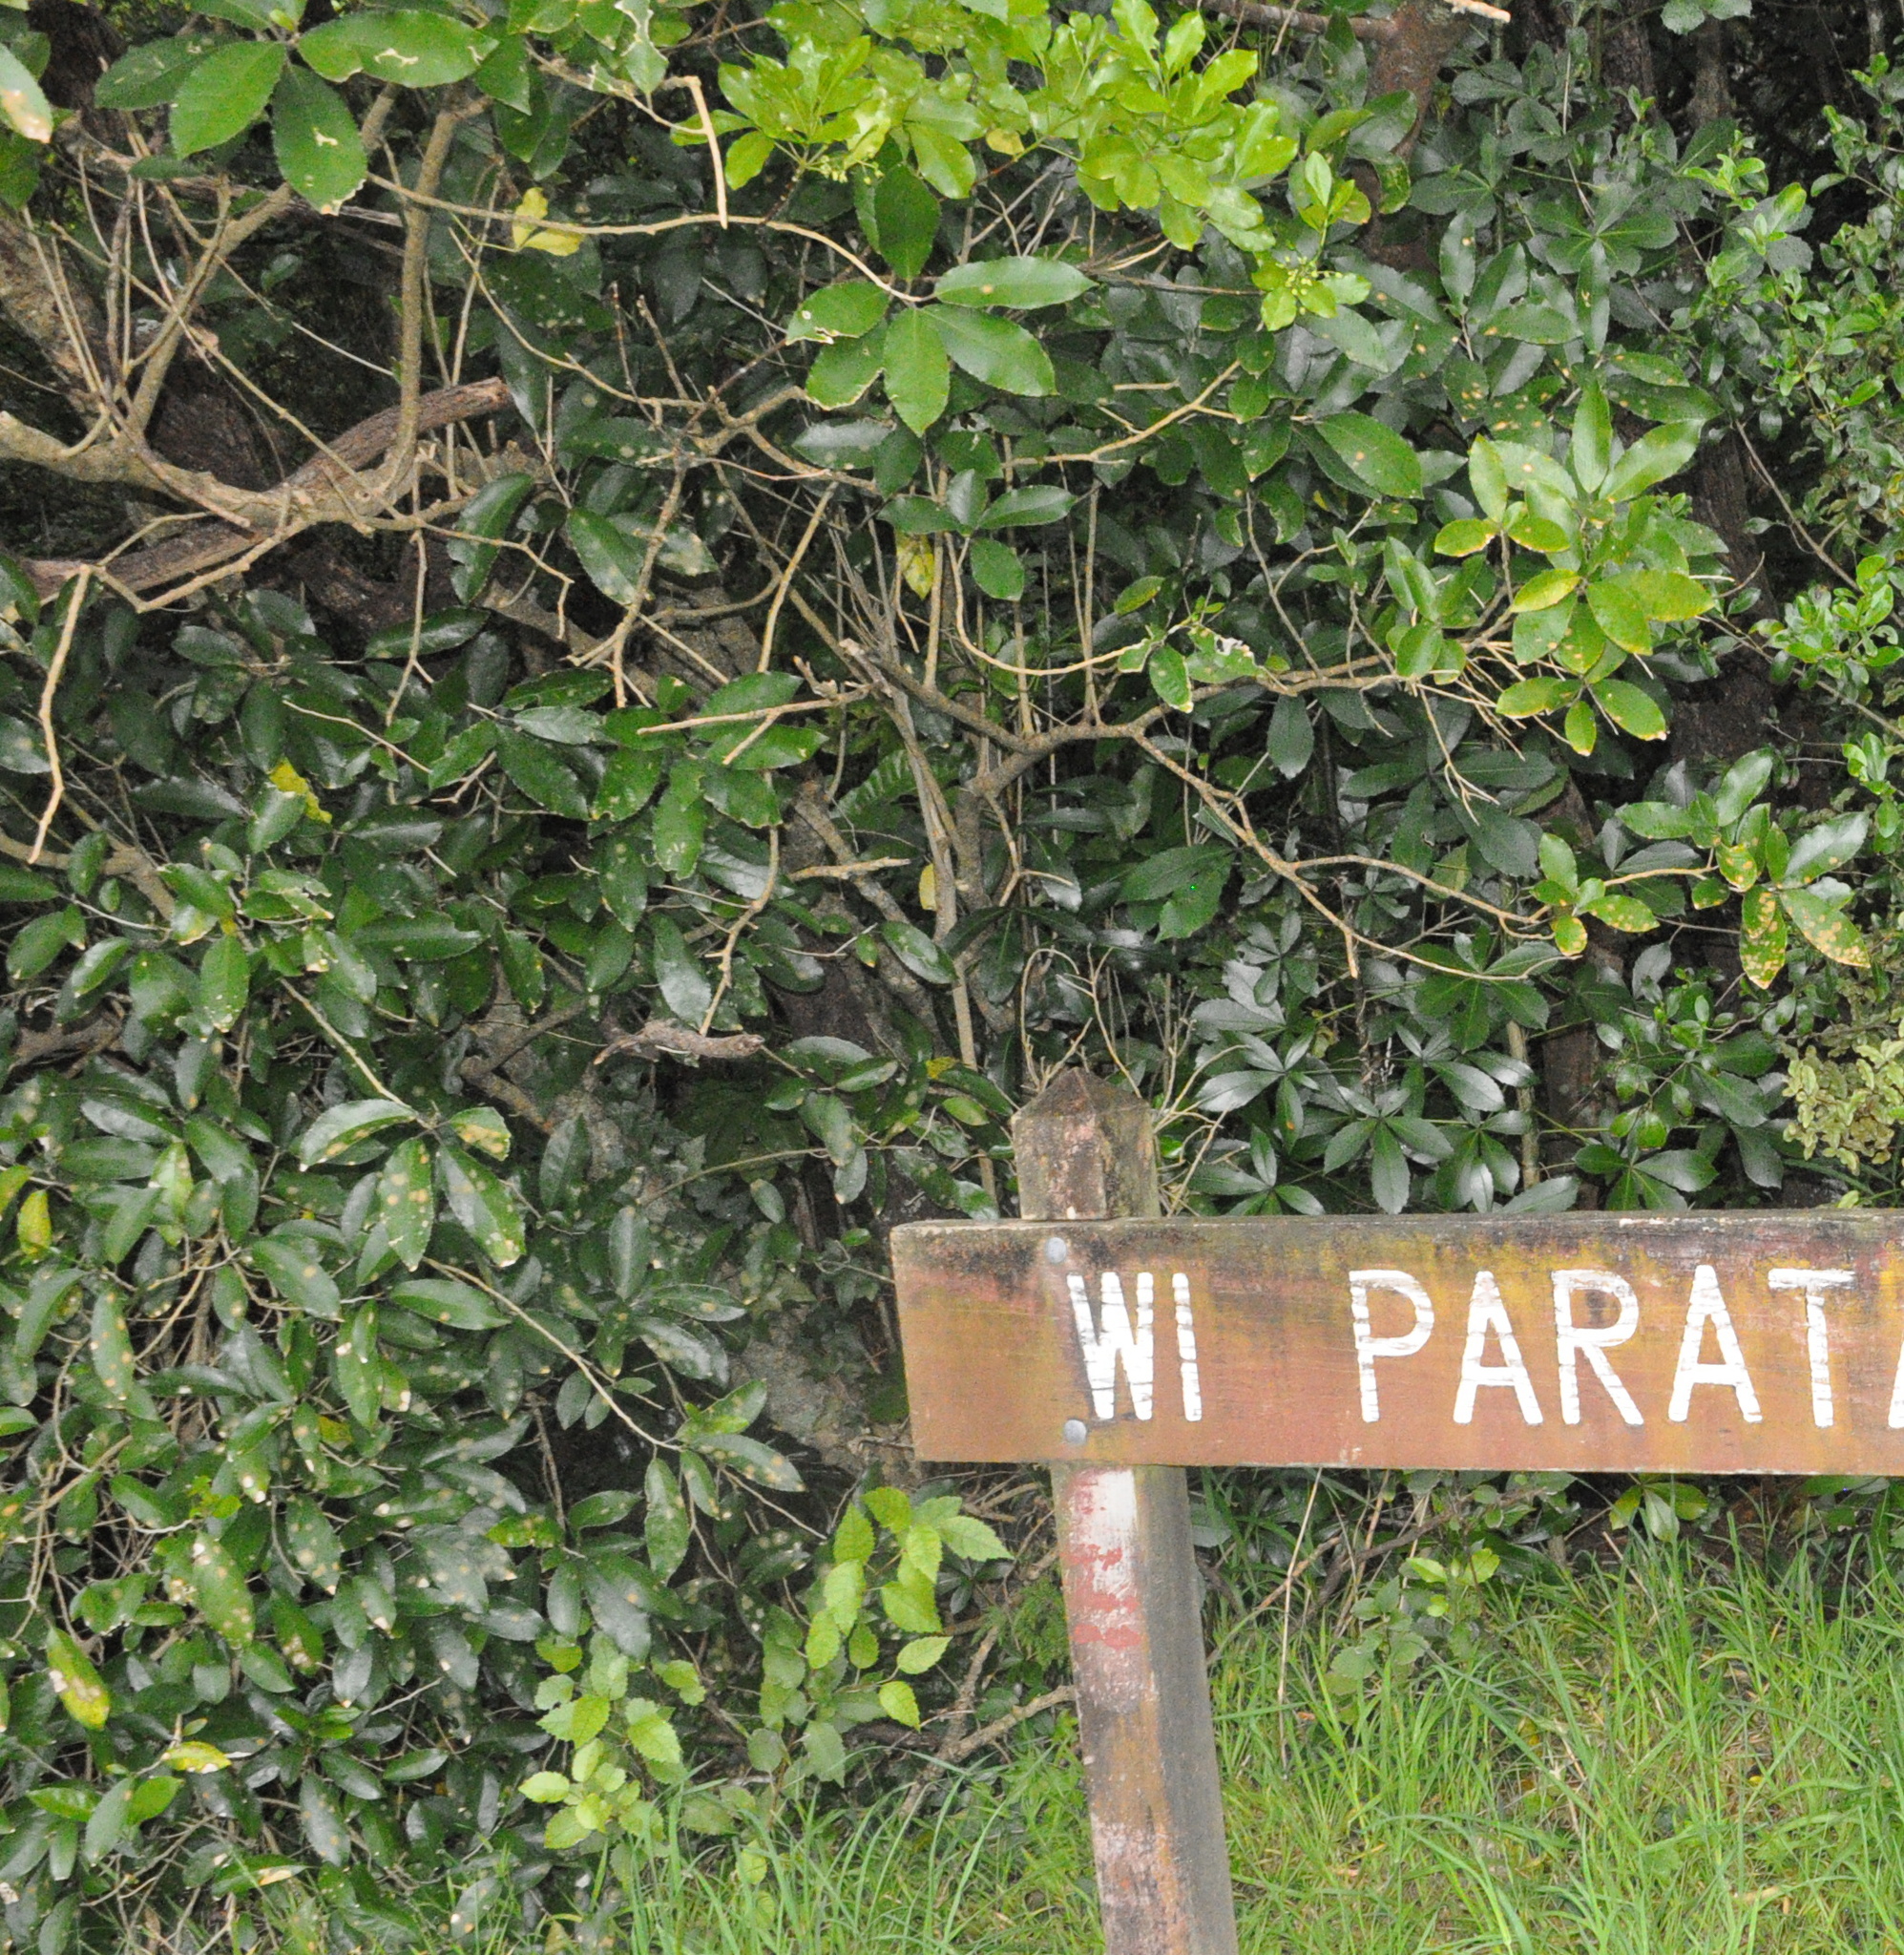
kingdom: Plantae
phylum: Tracheophyta
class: Magnoliopsida
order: Malpighiales
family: Violaceae
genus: Melicytus
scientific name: Melicytus ramiflorus
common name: Mahoe
